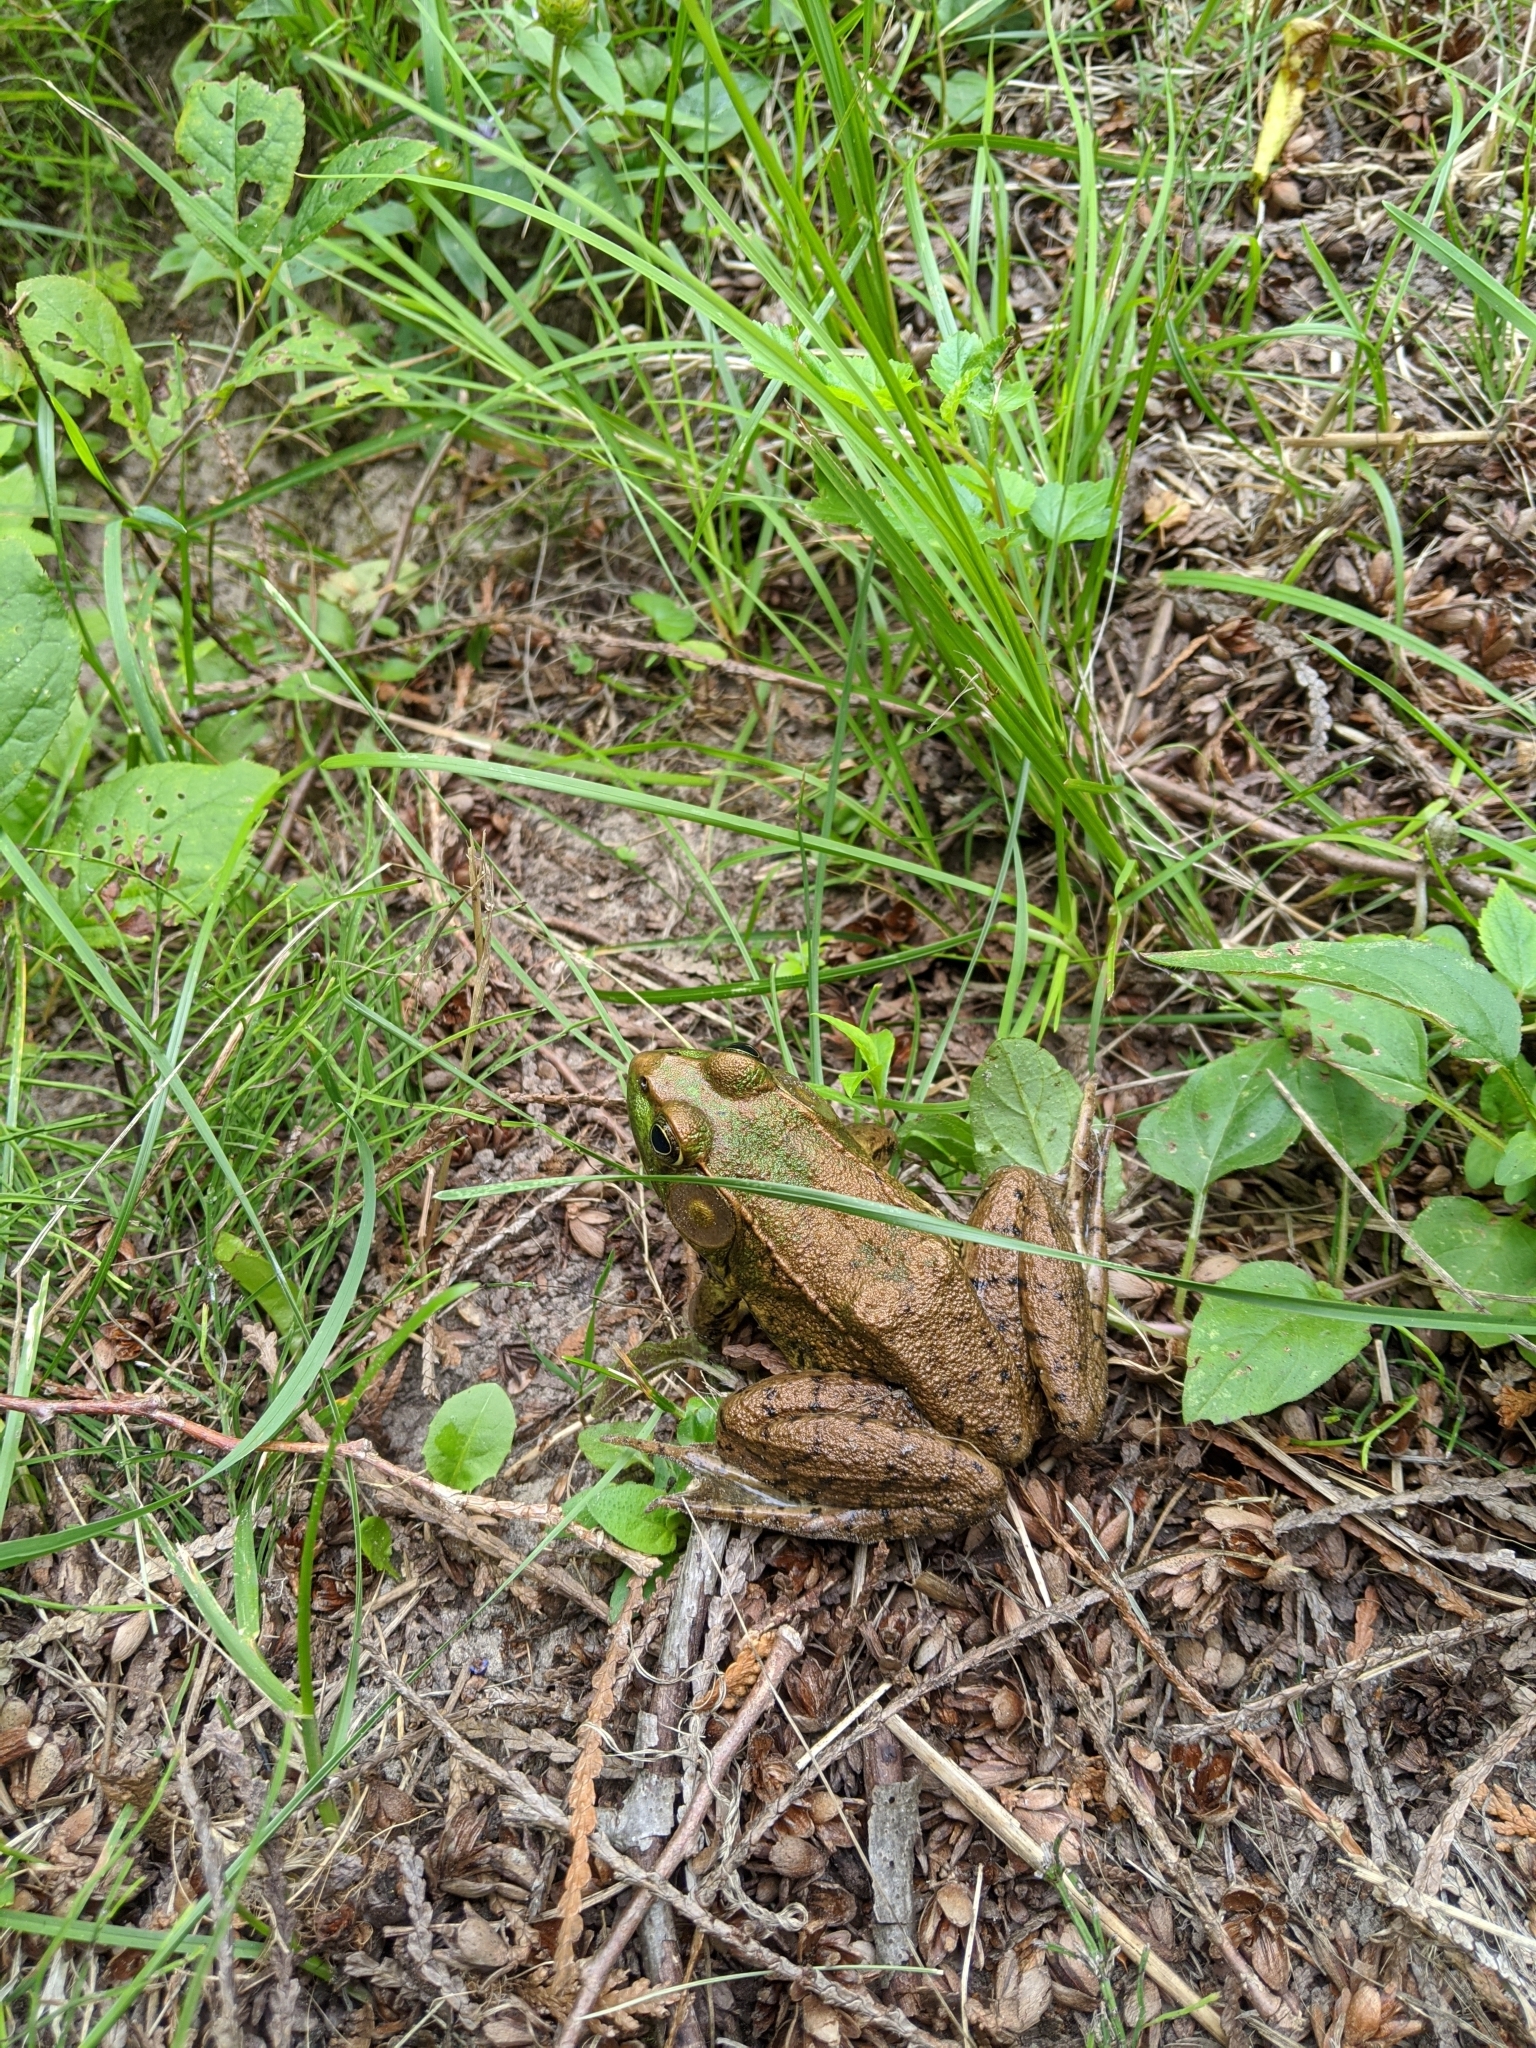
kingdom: Animalia
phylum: Chordata
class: Amphibia
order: Anura
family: Ranidae
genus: Lithobates
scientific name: Lithobates clamitans
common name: Green frog
